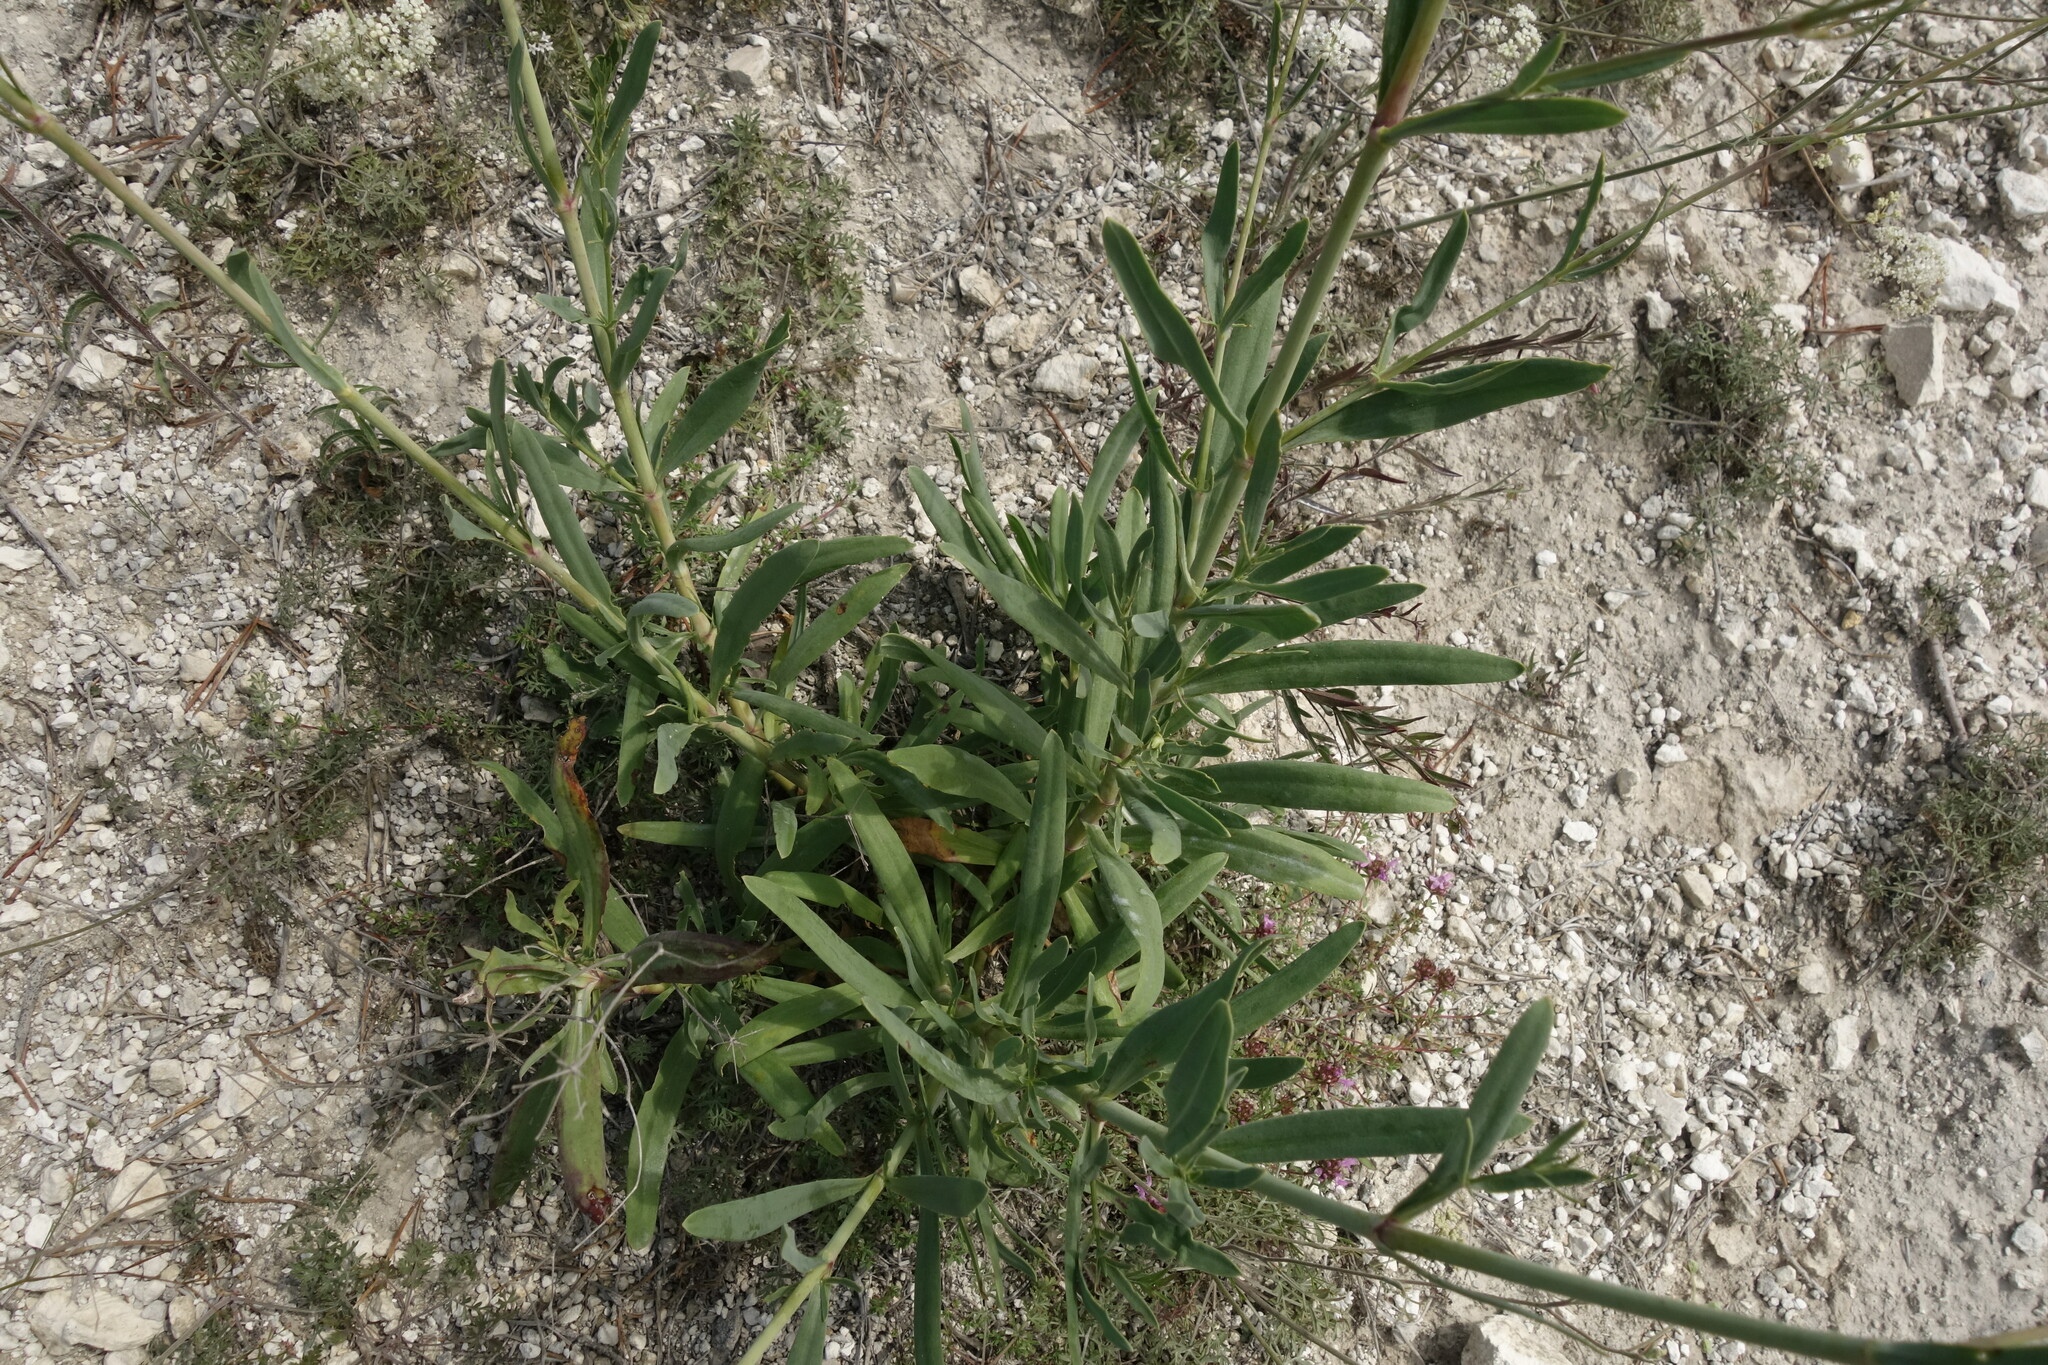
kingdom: Plantae
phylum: Tracheophyta
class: Magnoliopsida
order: Caryophyllales
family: Caryophyllaceae
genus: Gypsophila
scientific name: Gypsophila altissima
